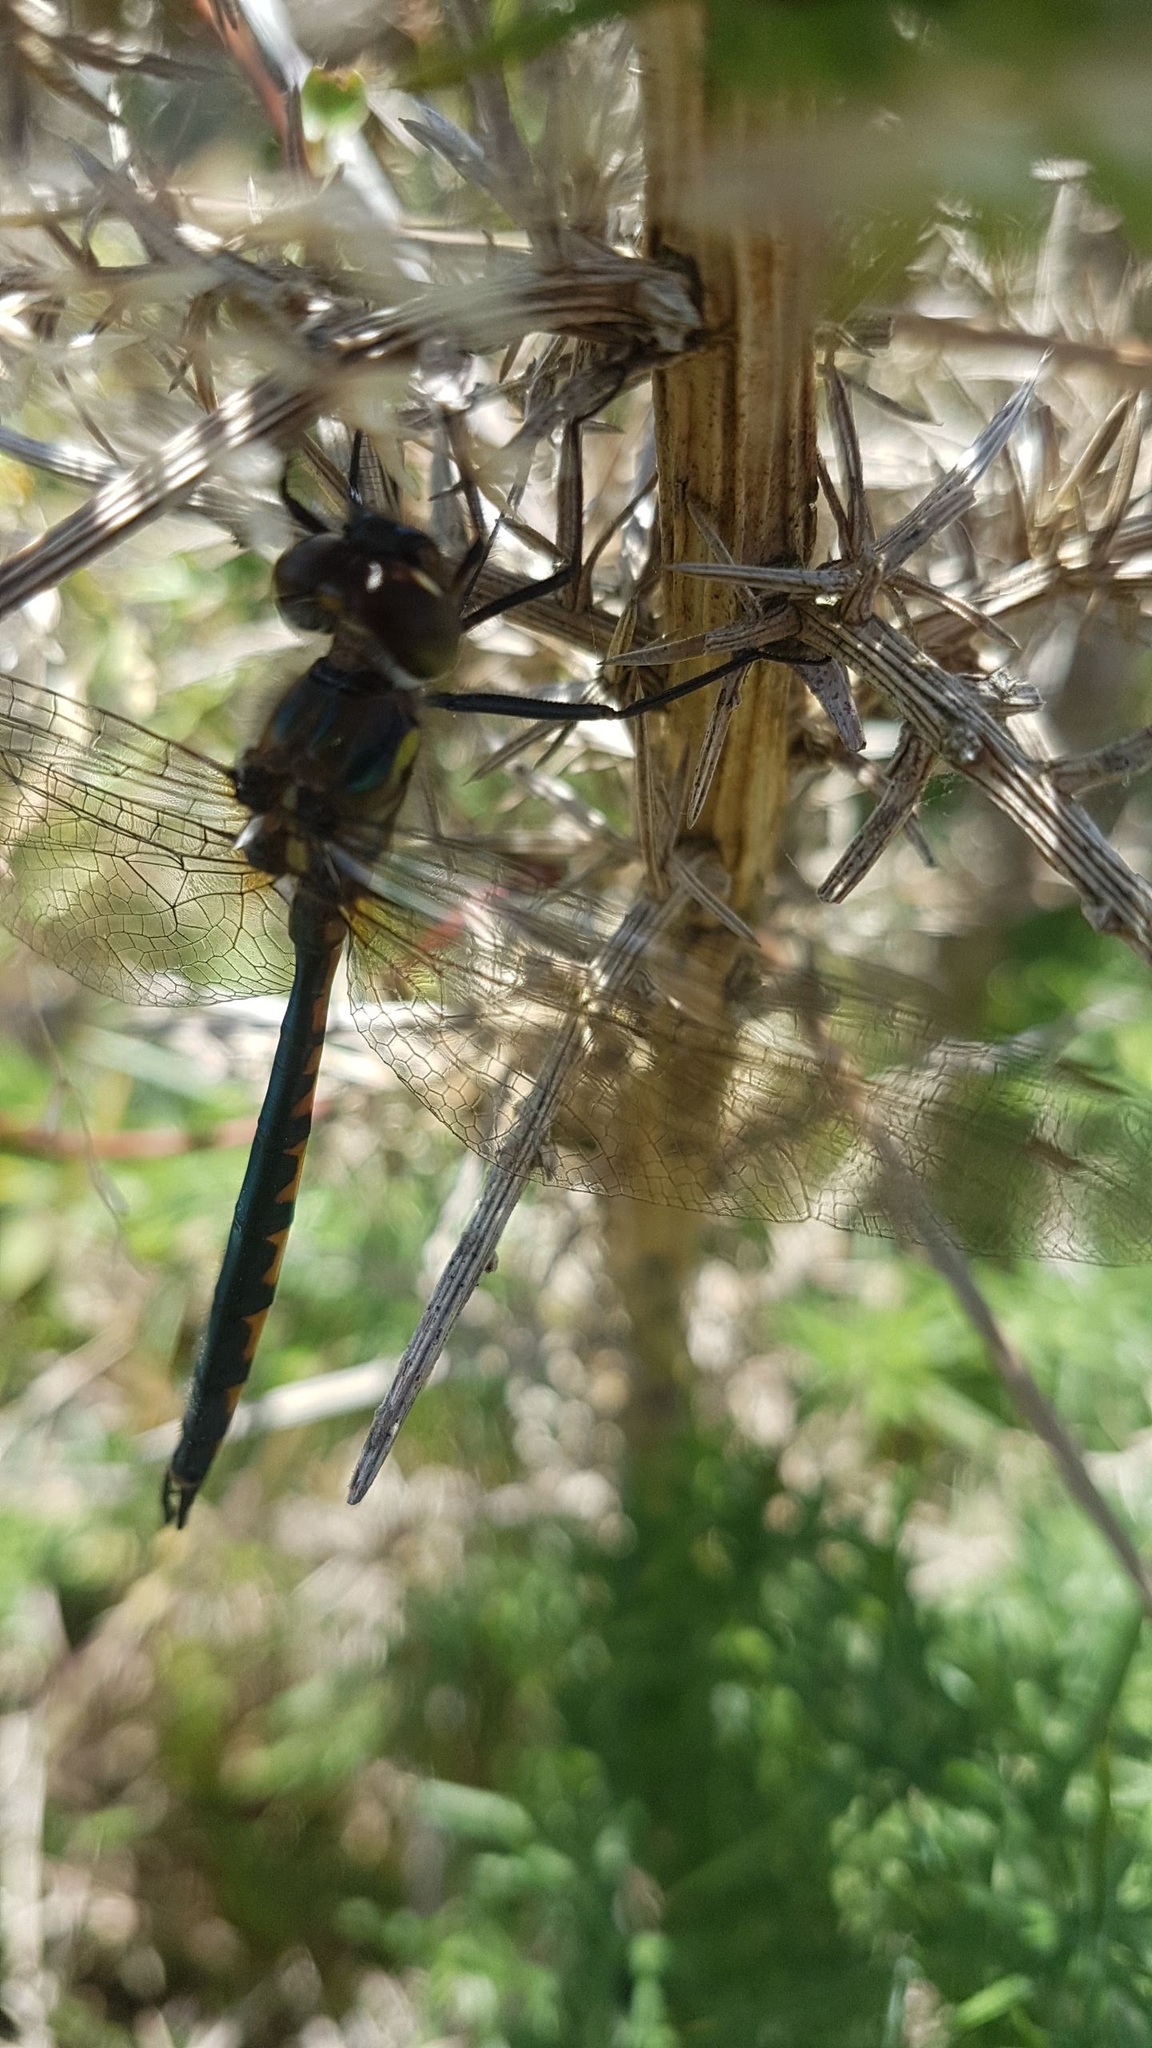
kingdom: Animalia
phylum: Arthropoda
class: Insecta
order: Odonata
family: Corduliidae
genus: Hemicordulia
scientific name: Hemicordulia australiae
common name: Sentry dragonfly
